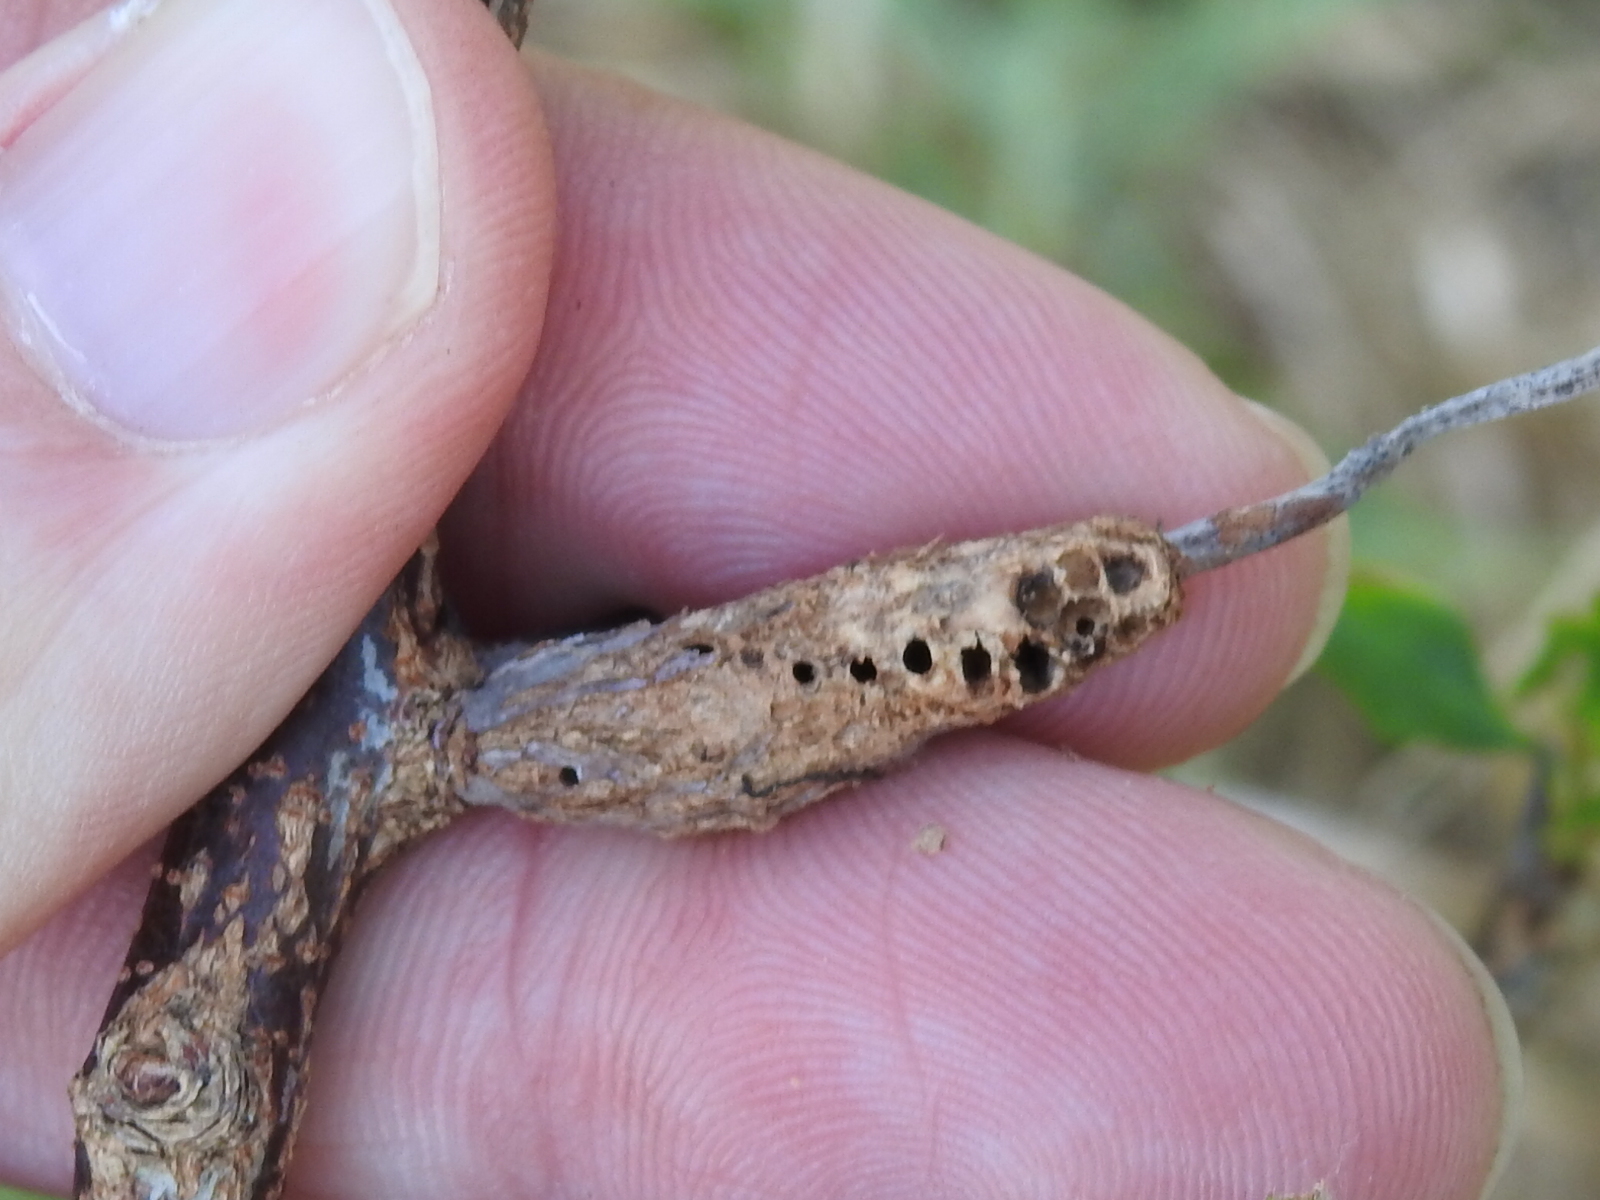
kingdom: Animalia
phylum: Arthropoda
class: Insecta
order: Diptera
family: Cecidomyiidae
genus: Bruggmanniella
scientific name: Bruggmanniella bumeliae
